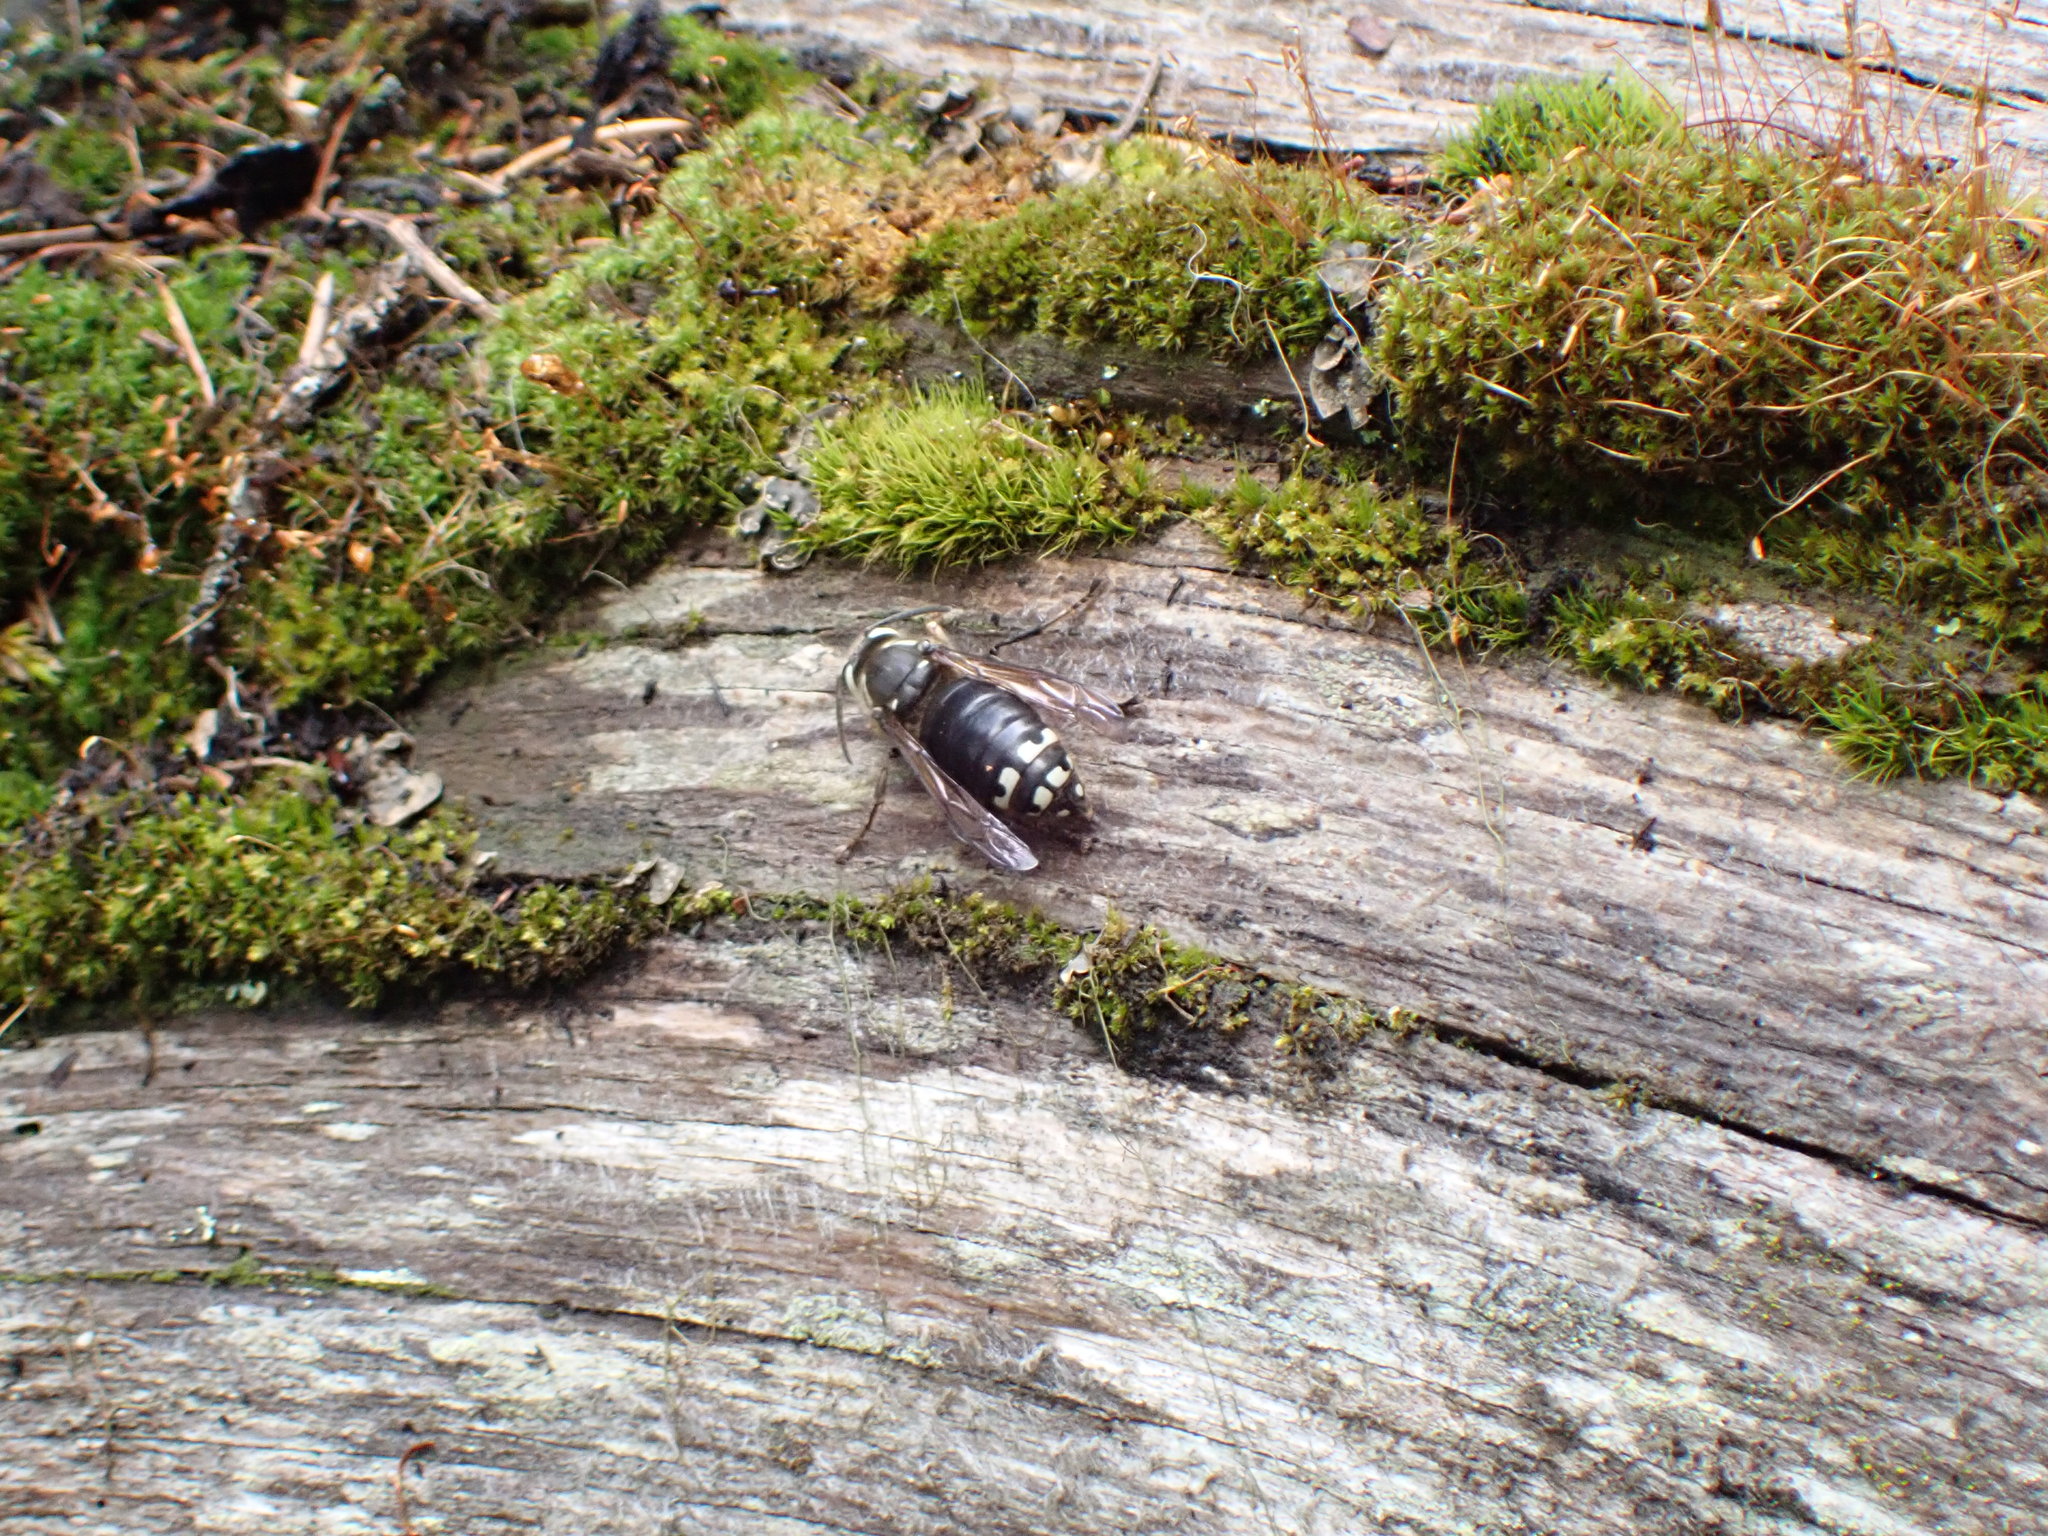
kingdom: Animalia
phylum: Arthropoda
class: Insecta
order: Hymenoptera
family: Vespidae
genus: Dolichovespula
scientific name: Dolichovespula maculata
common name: Bald-faced hornet
